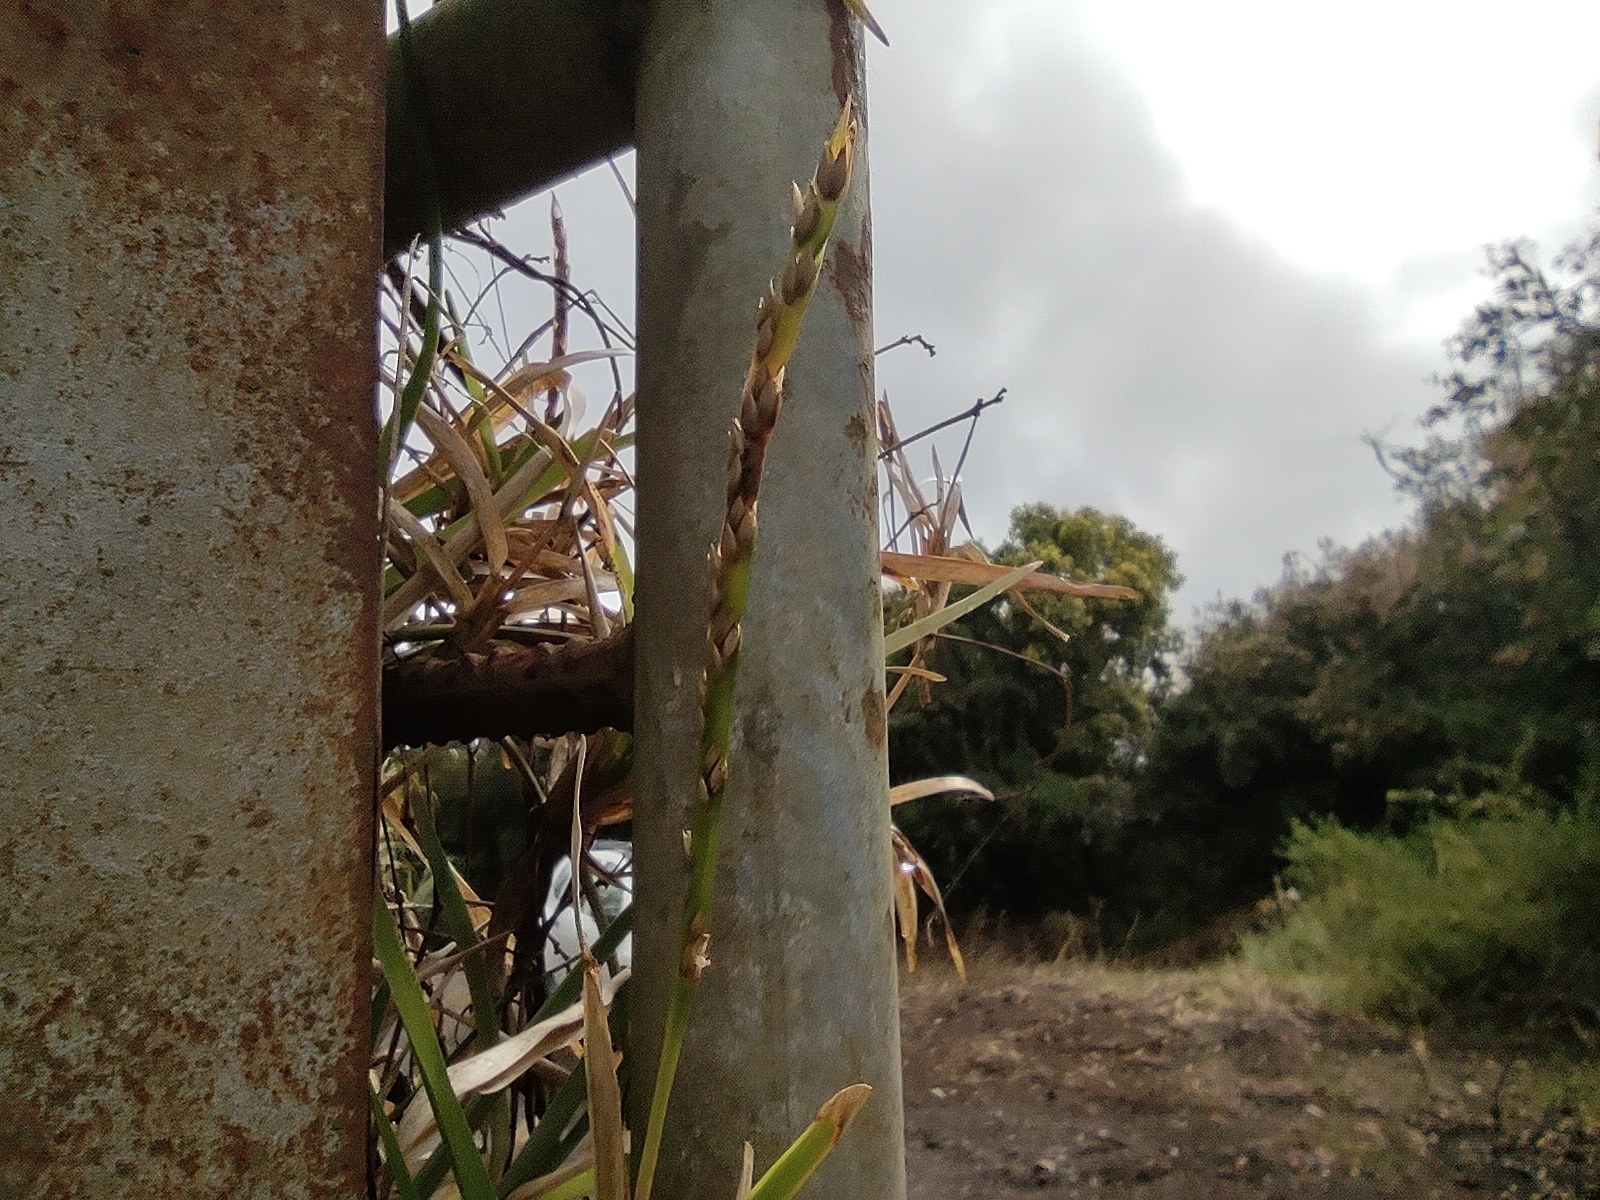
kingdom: Plantae
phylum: Tracheophyta
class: Liliopsida
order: Poales
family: Poaceae
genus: Stenotaphrum
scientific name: Stenotaphrum dimidiatum
